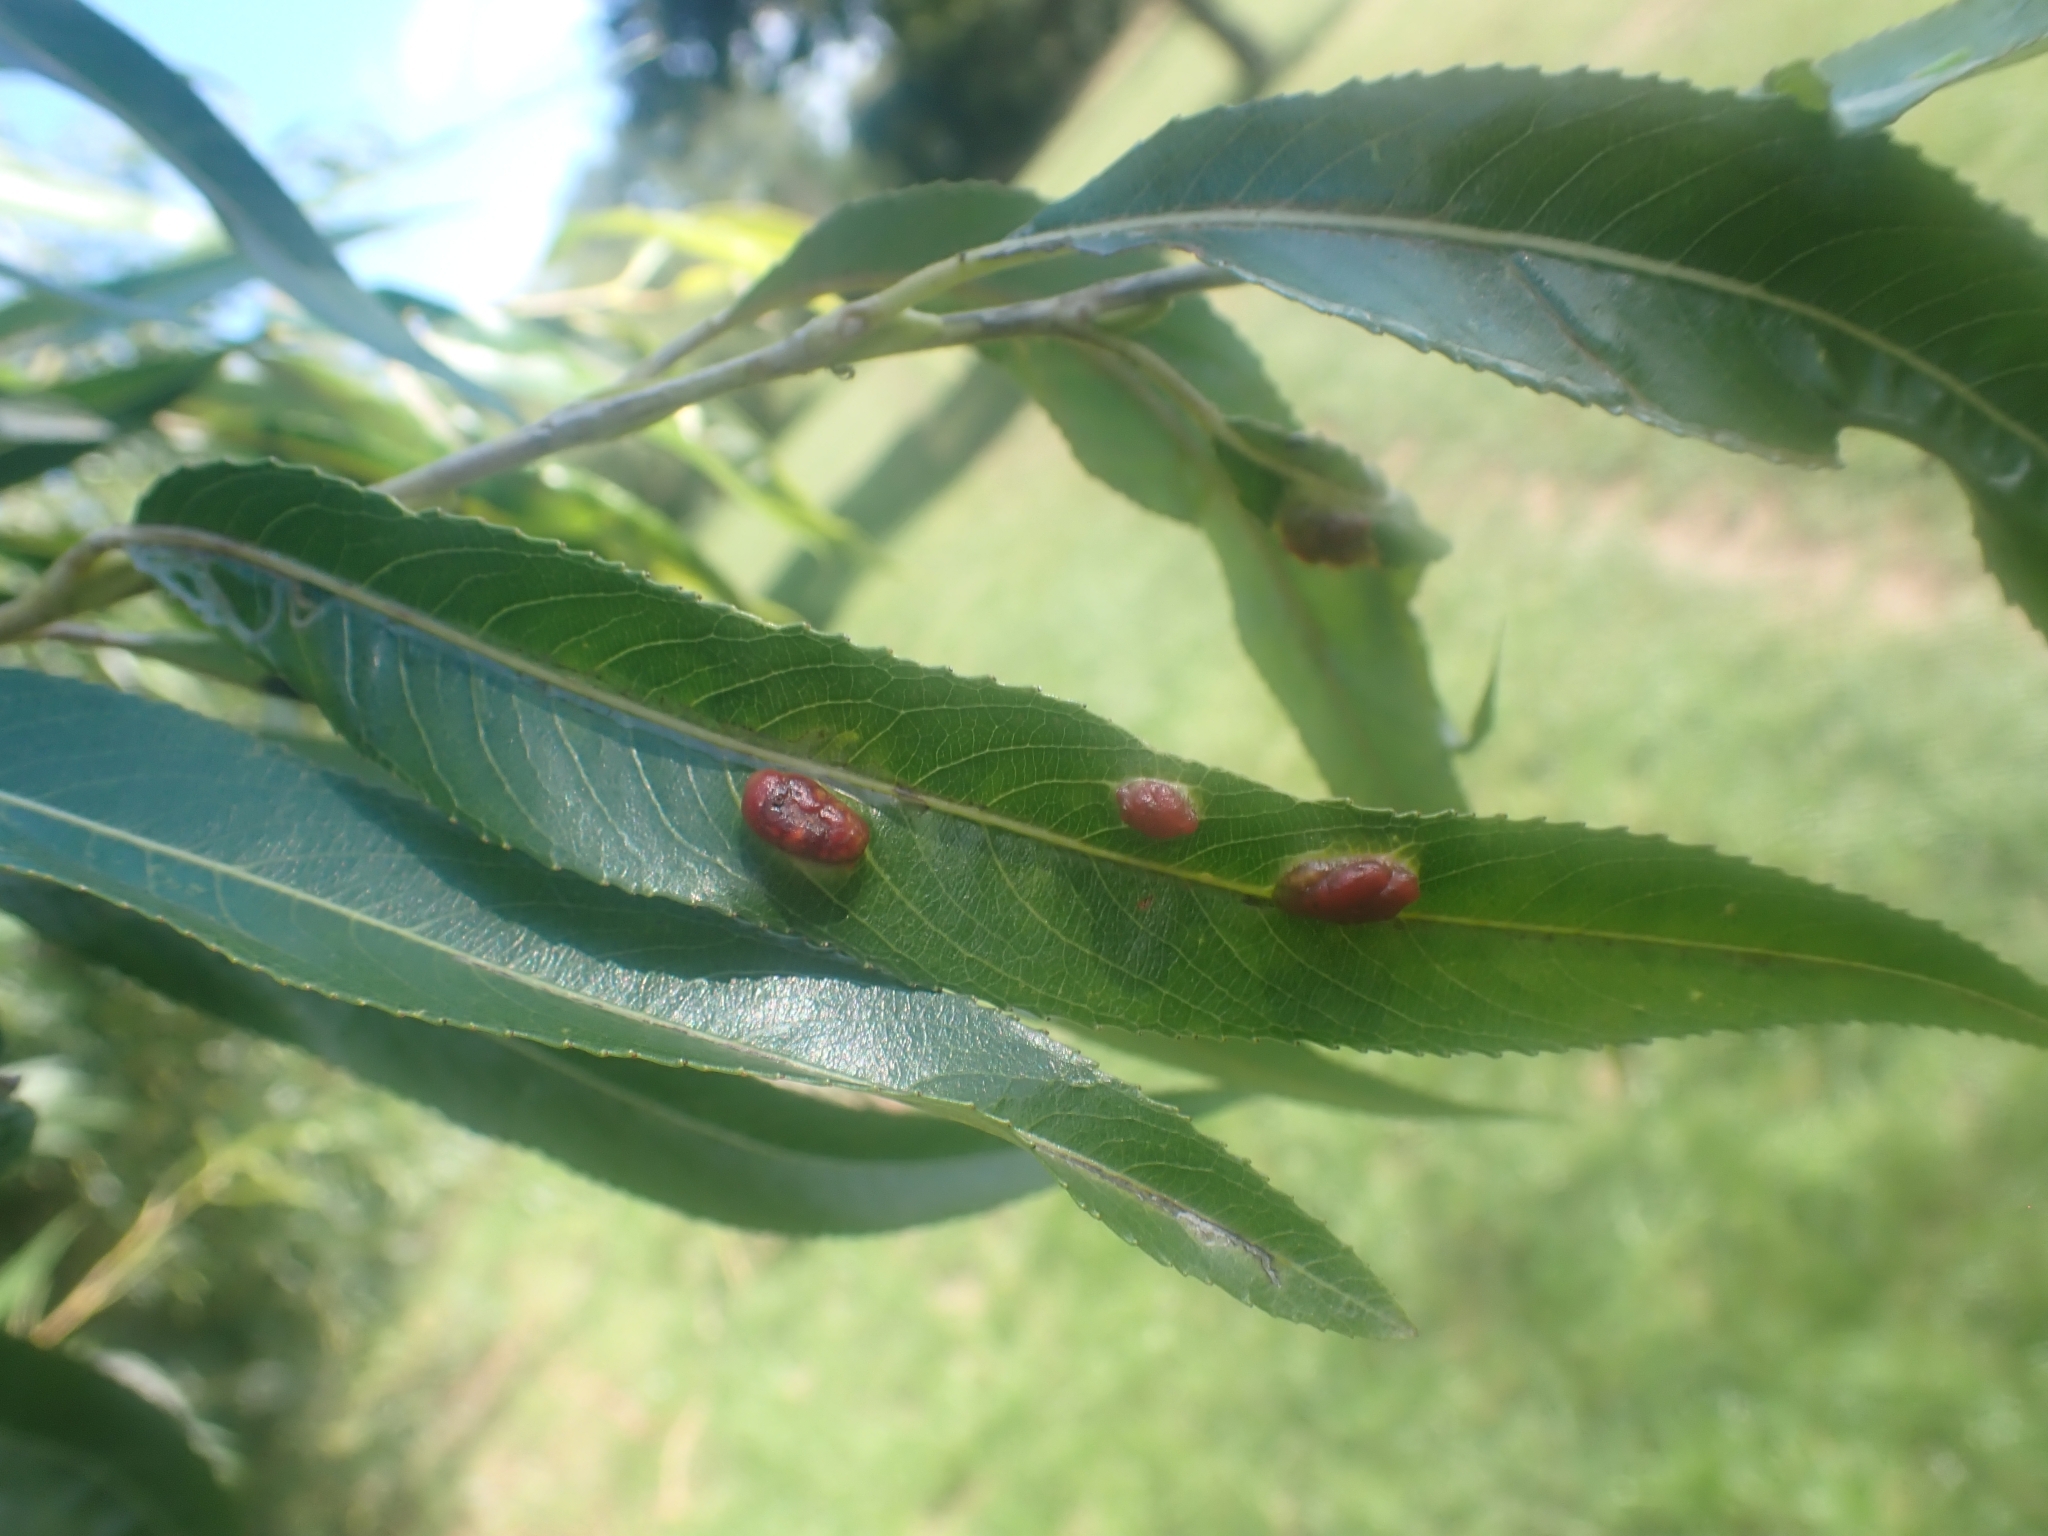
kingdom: Animalia
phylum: Arthropoda
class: Insecta
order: Hymenoptera
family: Tenthredinidae
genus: Pontania
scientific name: Pontania proxima
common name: Common sawfly
